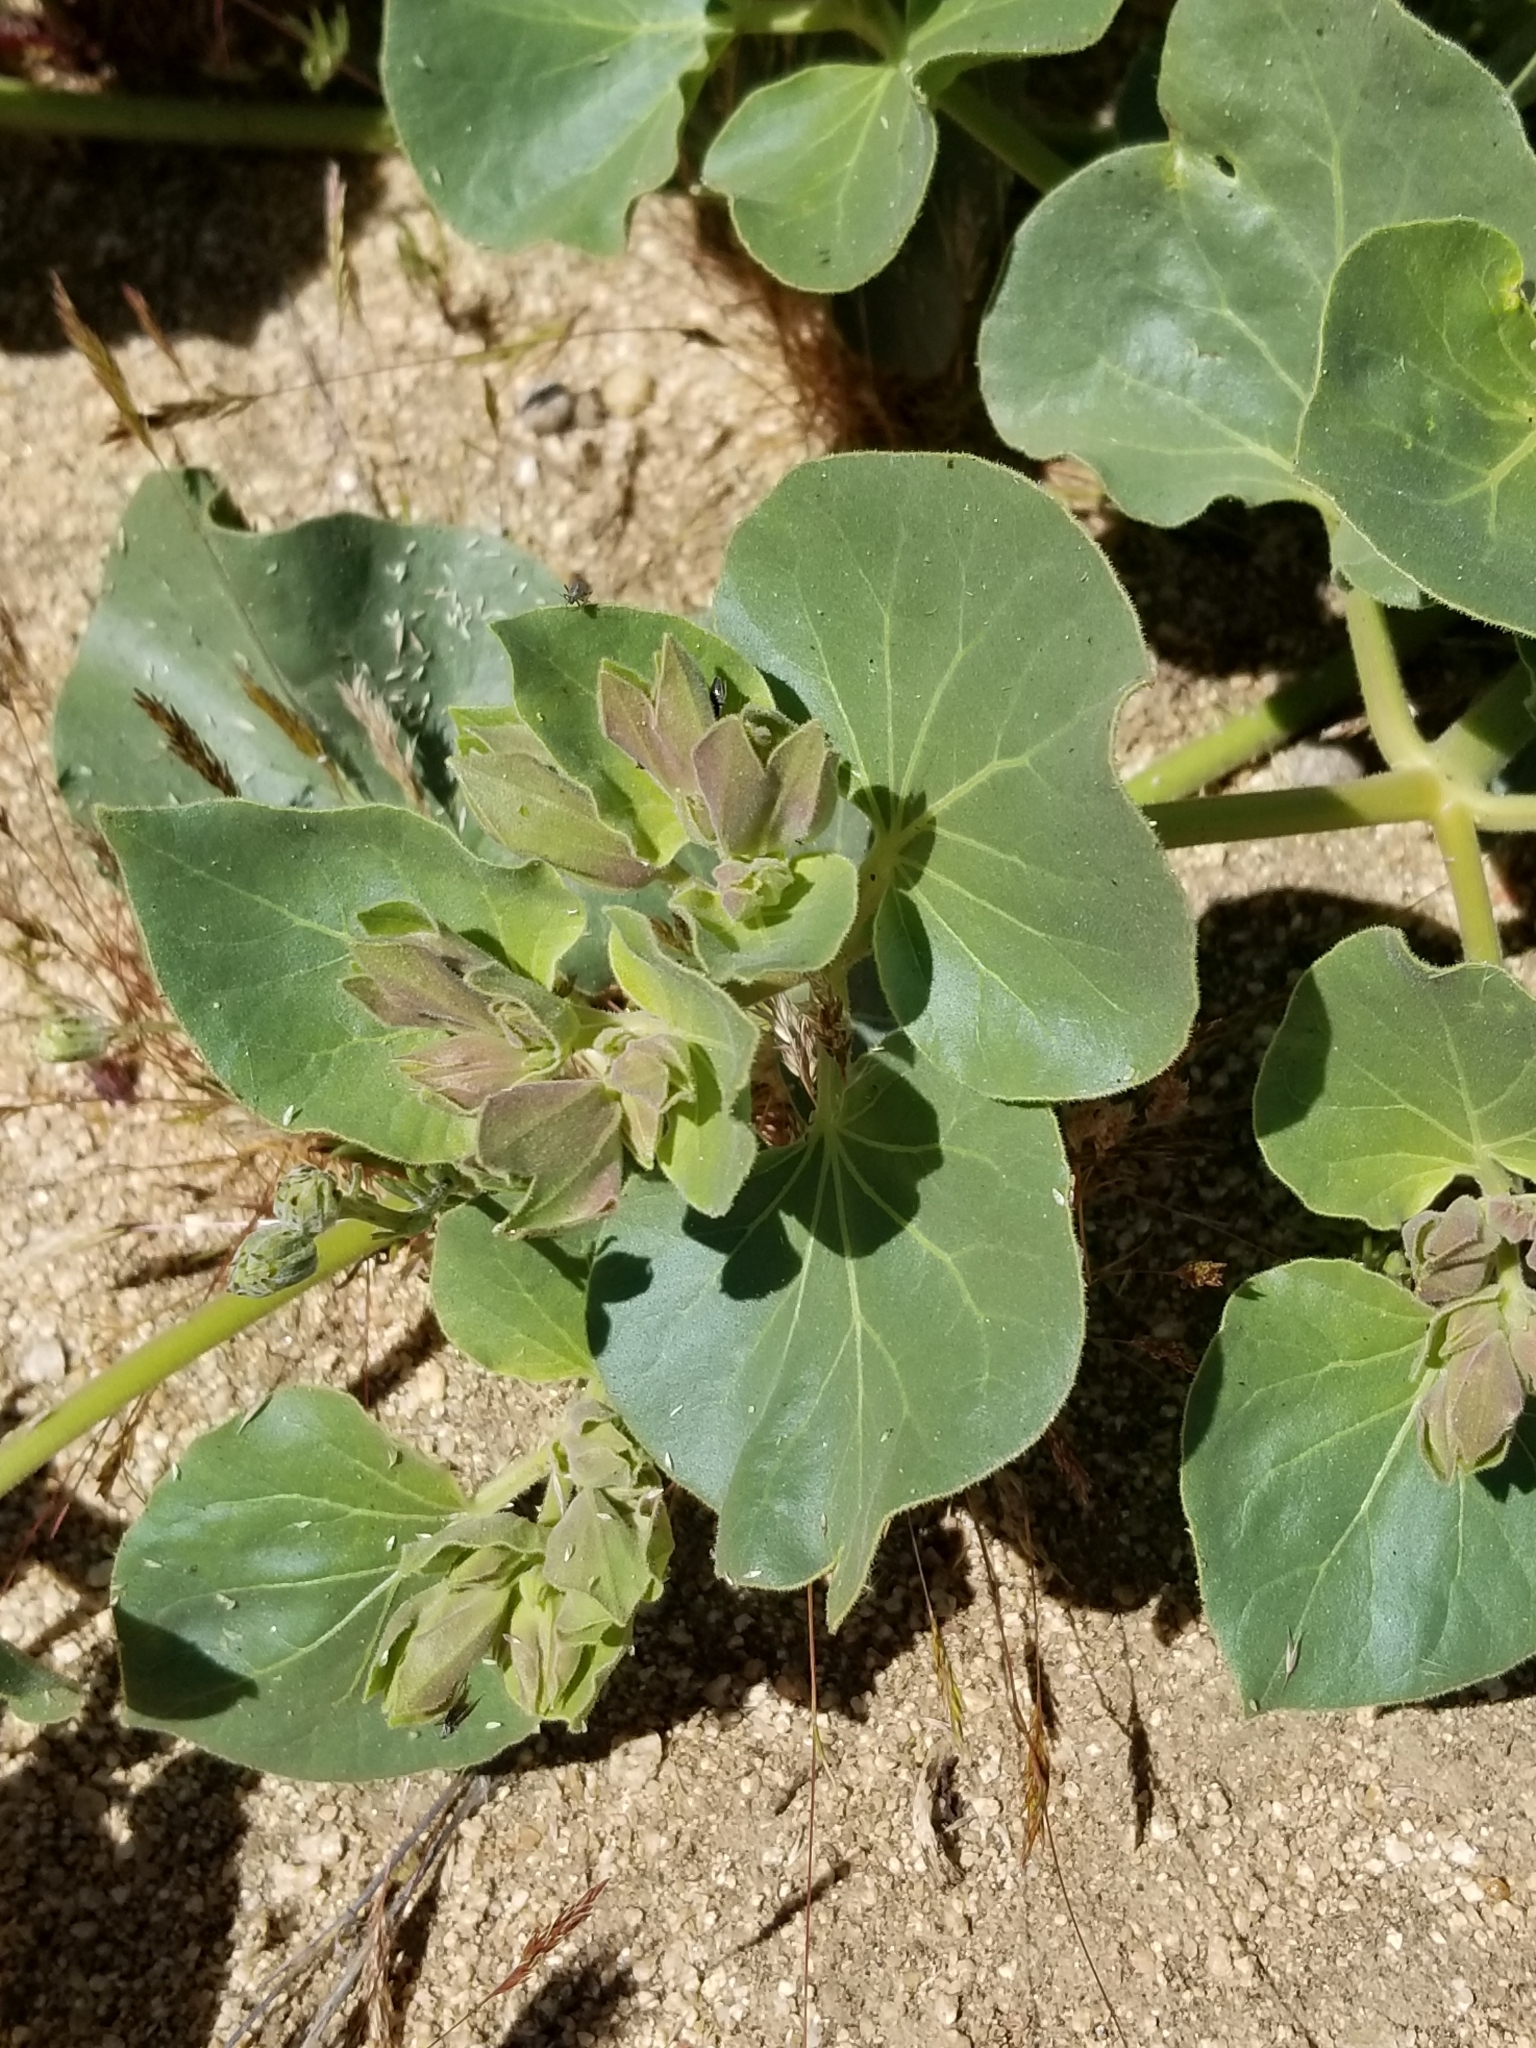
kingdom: Plantae
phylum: Tracheophyta
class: Magnoliopsida
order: Caryophyllales
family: Nyctaginaceae
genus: Mirabilis
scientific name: Mirabilis multiflora
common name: Froebel's four-o'clock
